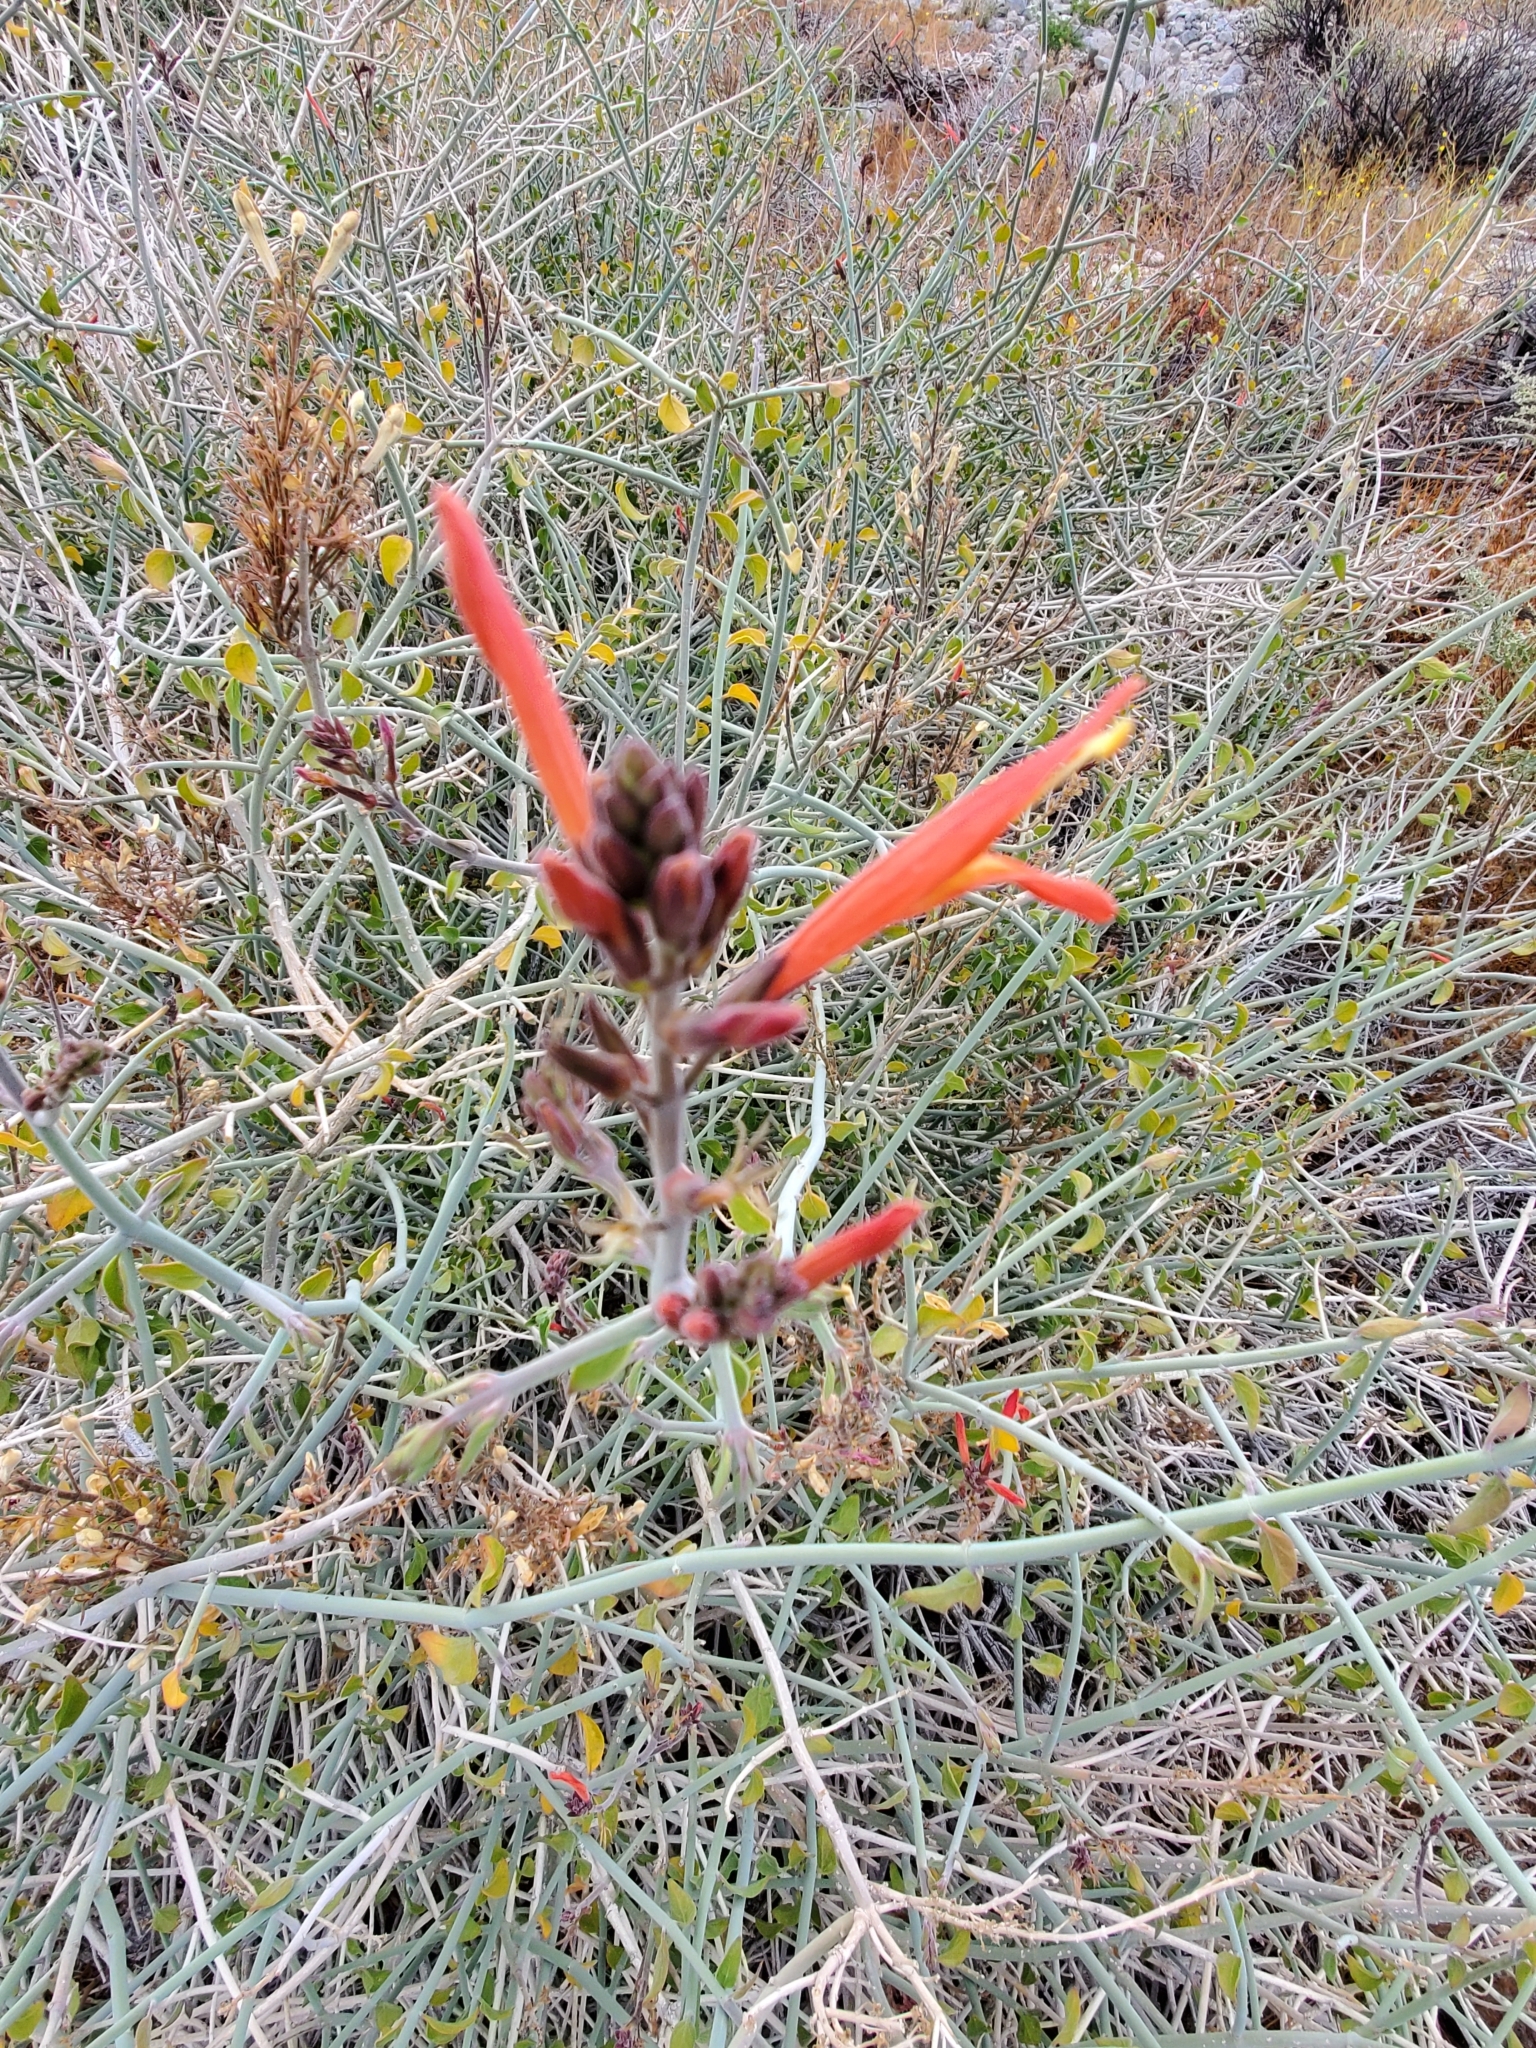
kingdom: Plantae
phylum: Tracheophyta
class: Magnoliopsida
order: Lamiales
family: Acanthaceae
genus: Justicia
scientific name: Justicia californica
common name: Chuparosa-honeysuckle
